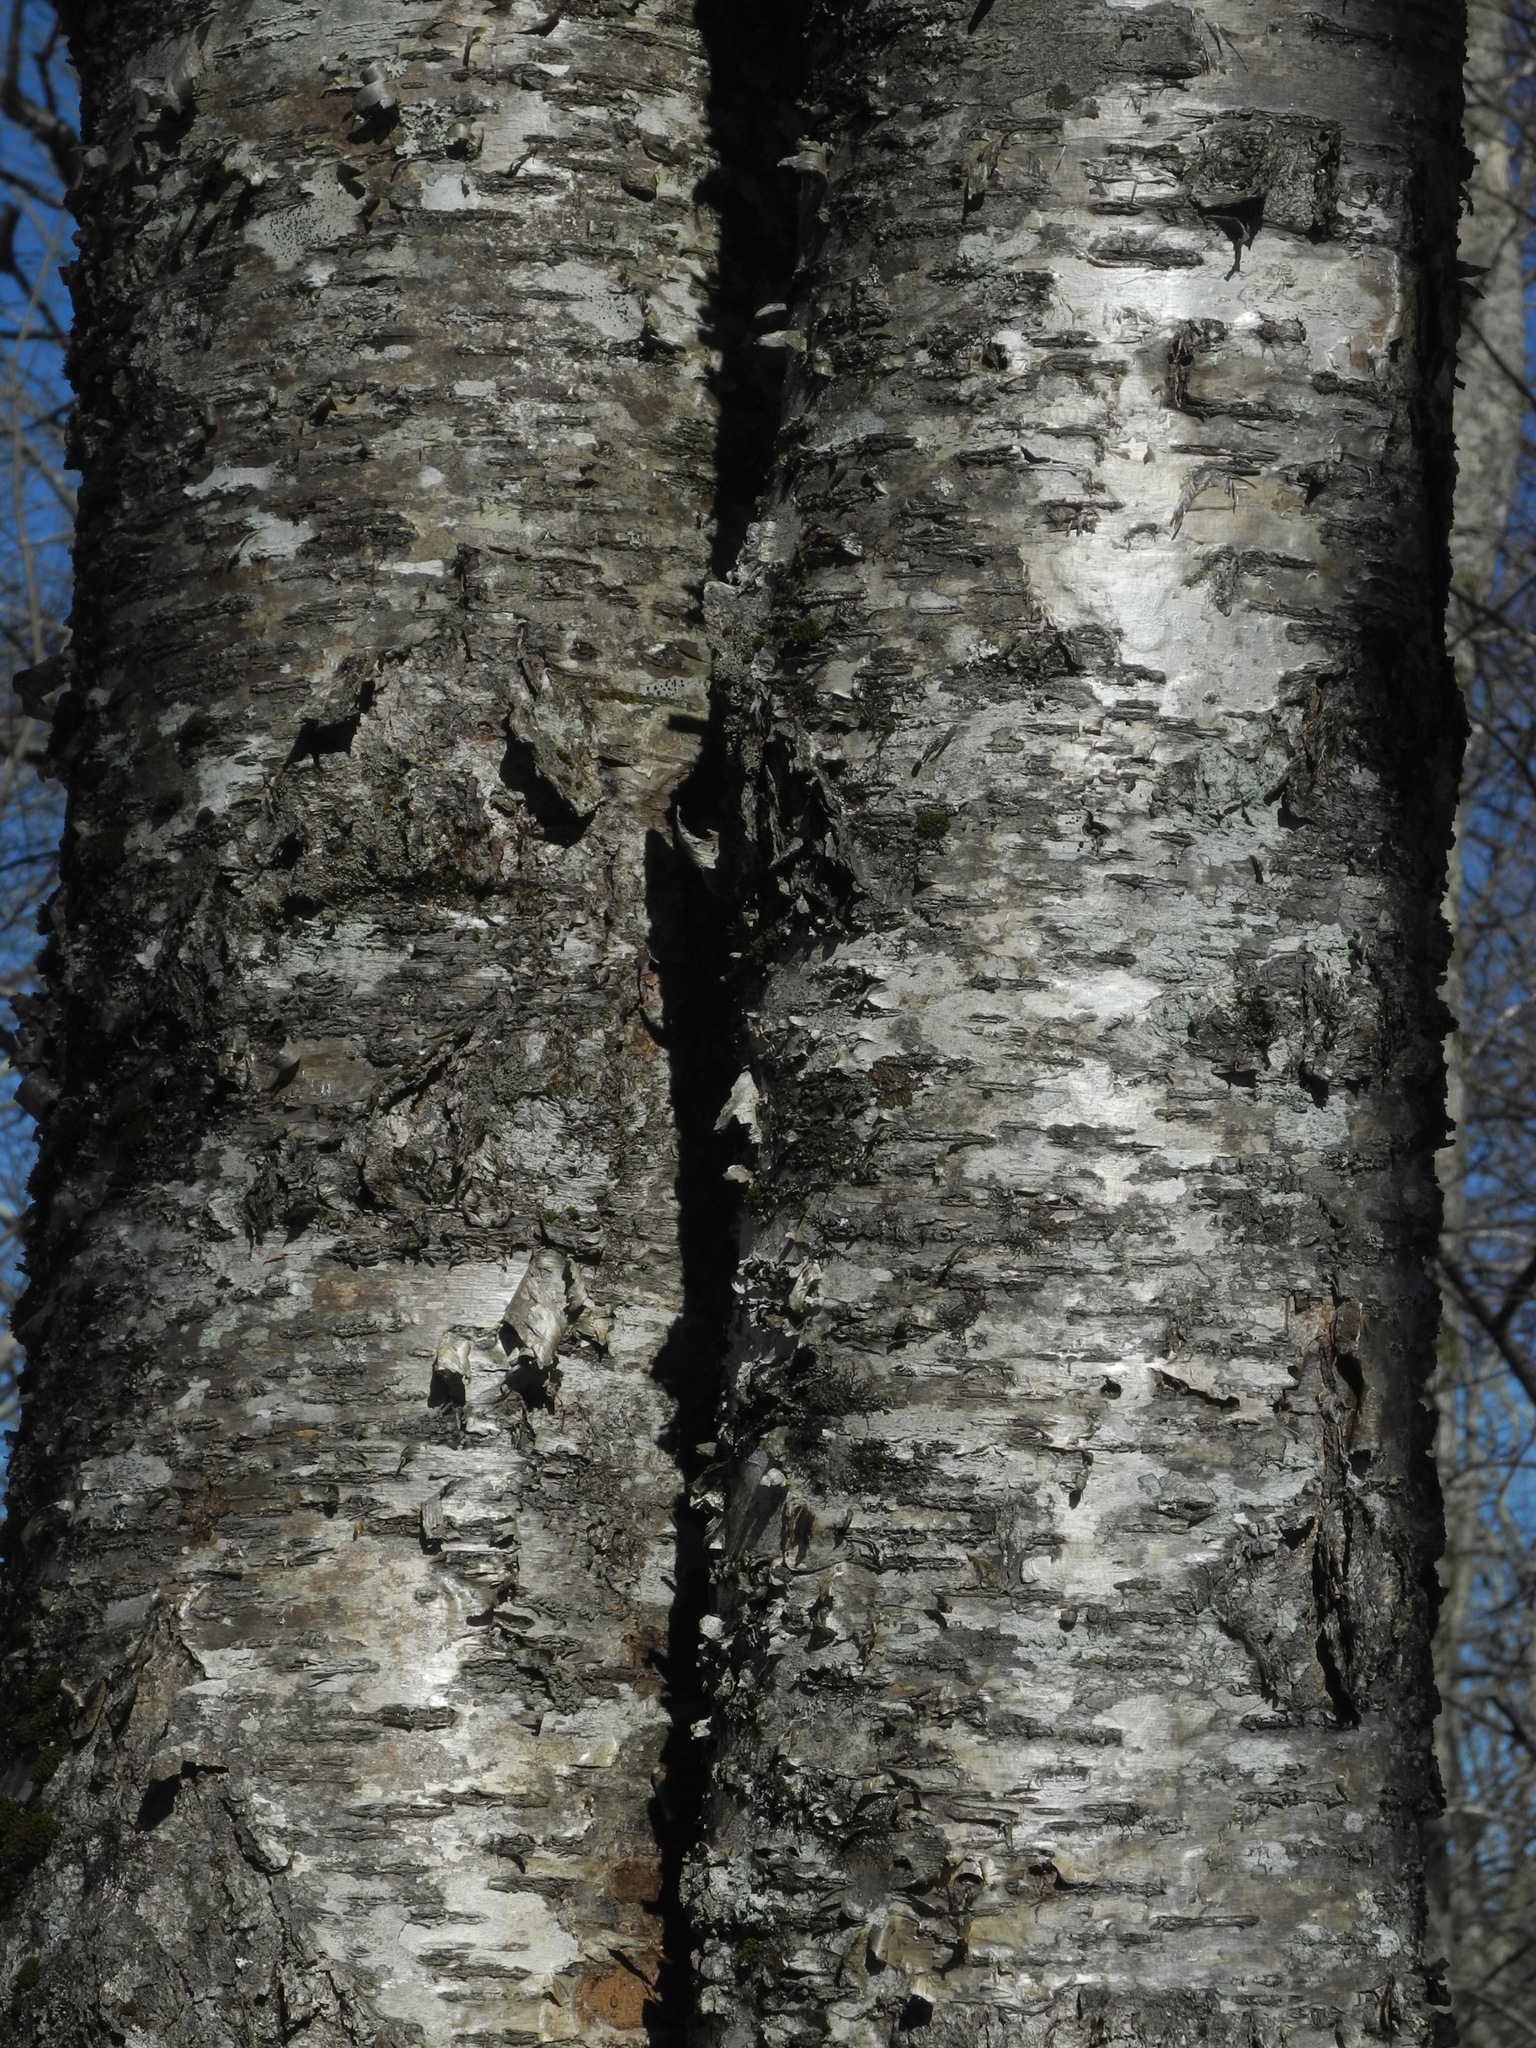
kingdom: Plantae
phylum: Tracheophyta
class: Magnoliopsida
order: Fagales
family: Betulaceae
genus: Betula
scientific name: Betula alleghaniensis
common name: Yellow birch
